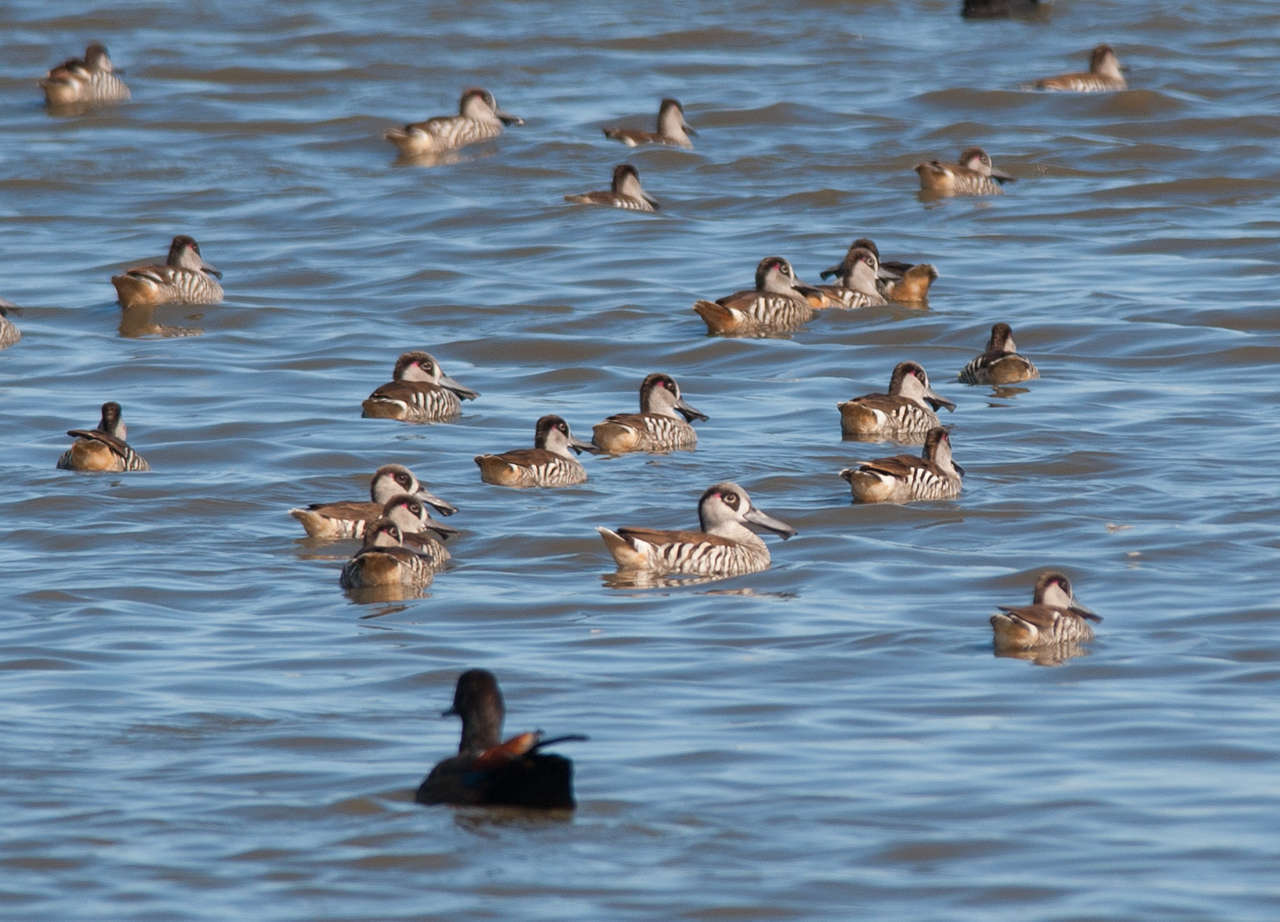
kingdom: Animalia
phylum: Chordata
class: Aves
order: Anseriformes
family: Anatidae
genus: Malacorhynchus
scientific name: Malacorhynchus membranaceus
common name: Pink-eared duck
